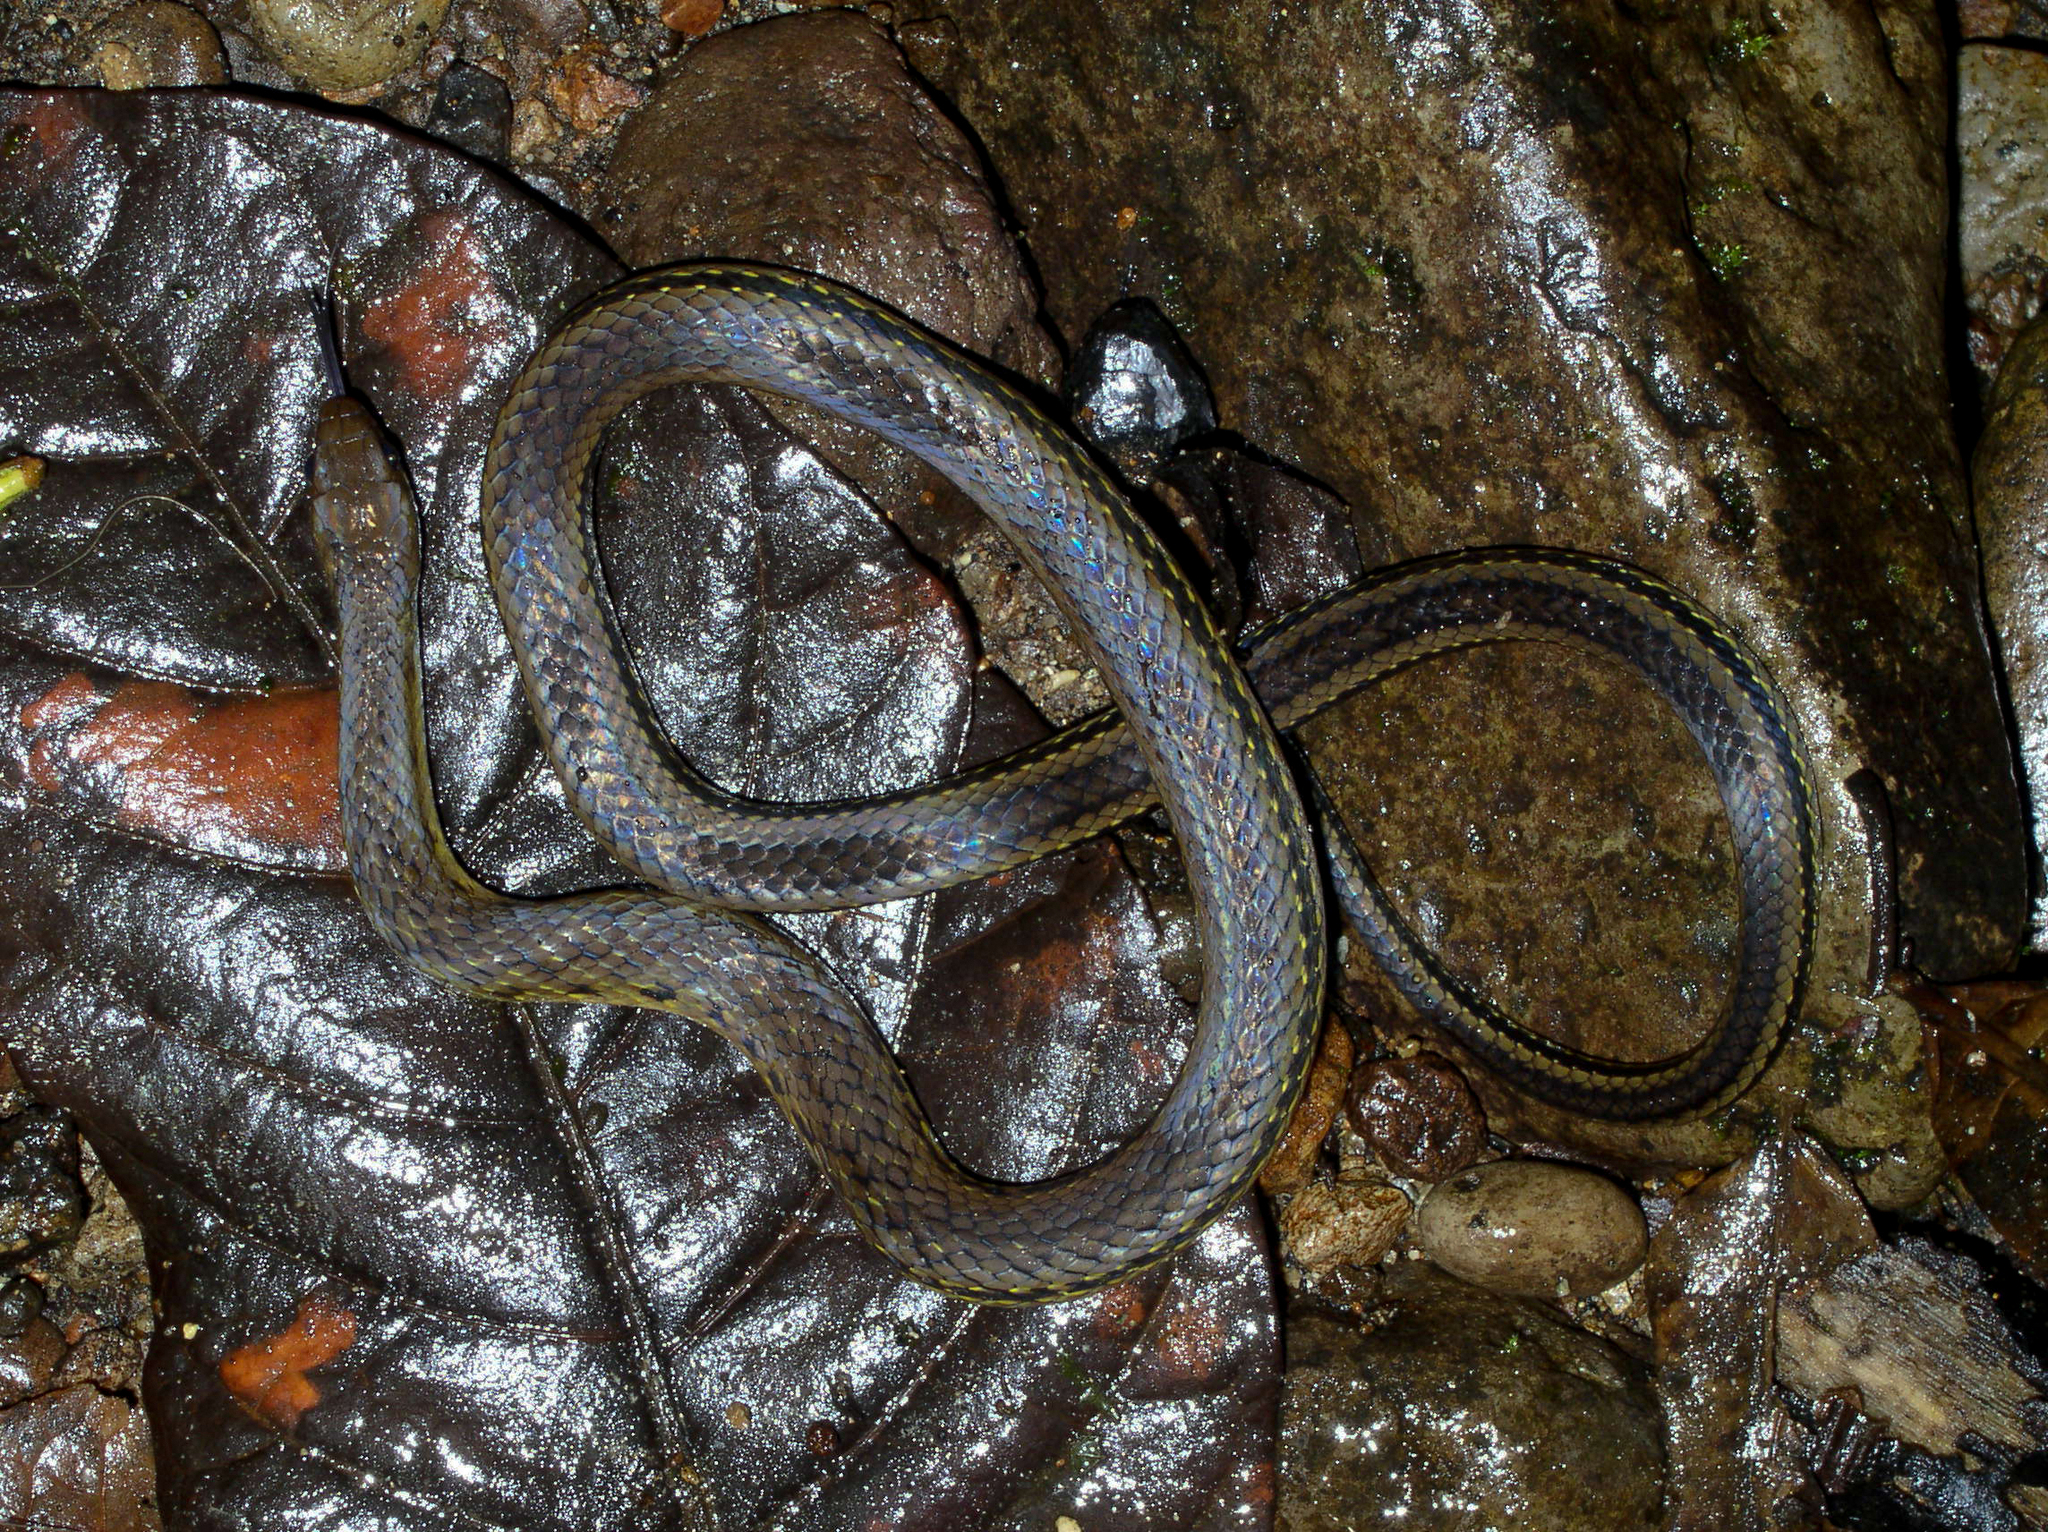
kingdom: Animalia
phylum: Chordata
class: Squamata
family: Colubridae
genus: Erythrolamprus
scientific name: Erythrolamprus reginae
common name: Royal ground snake
